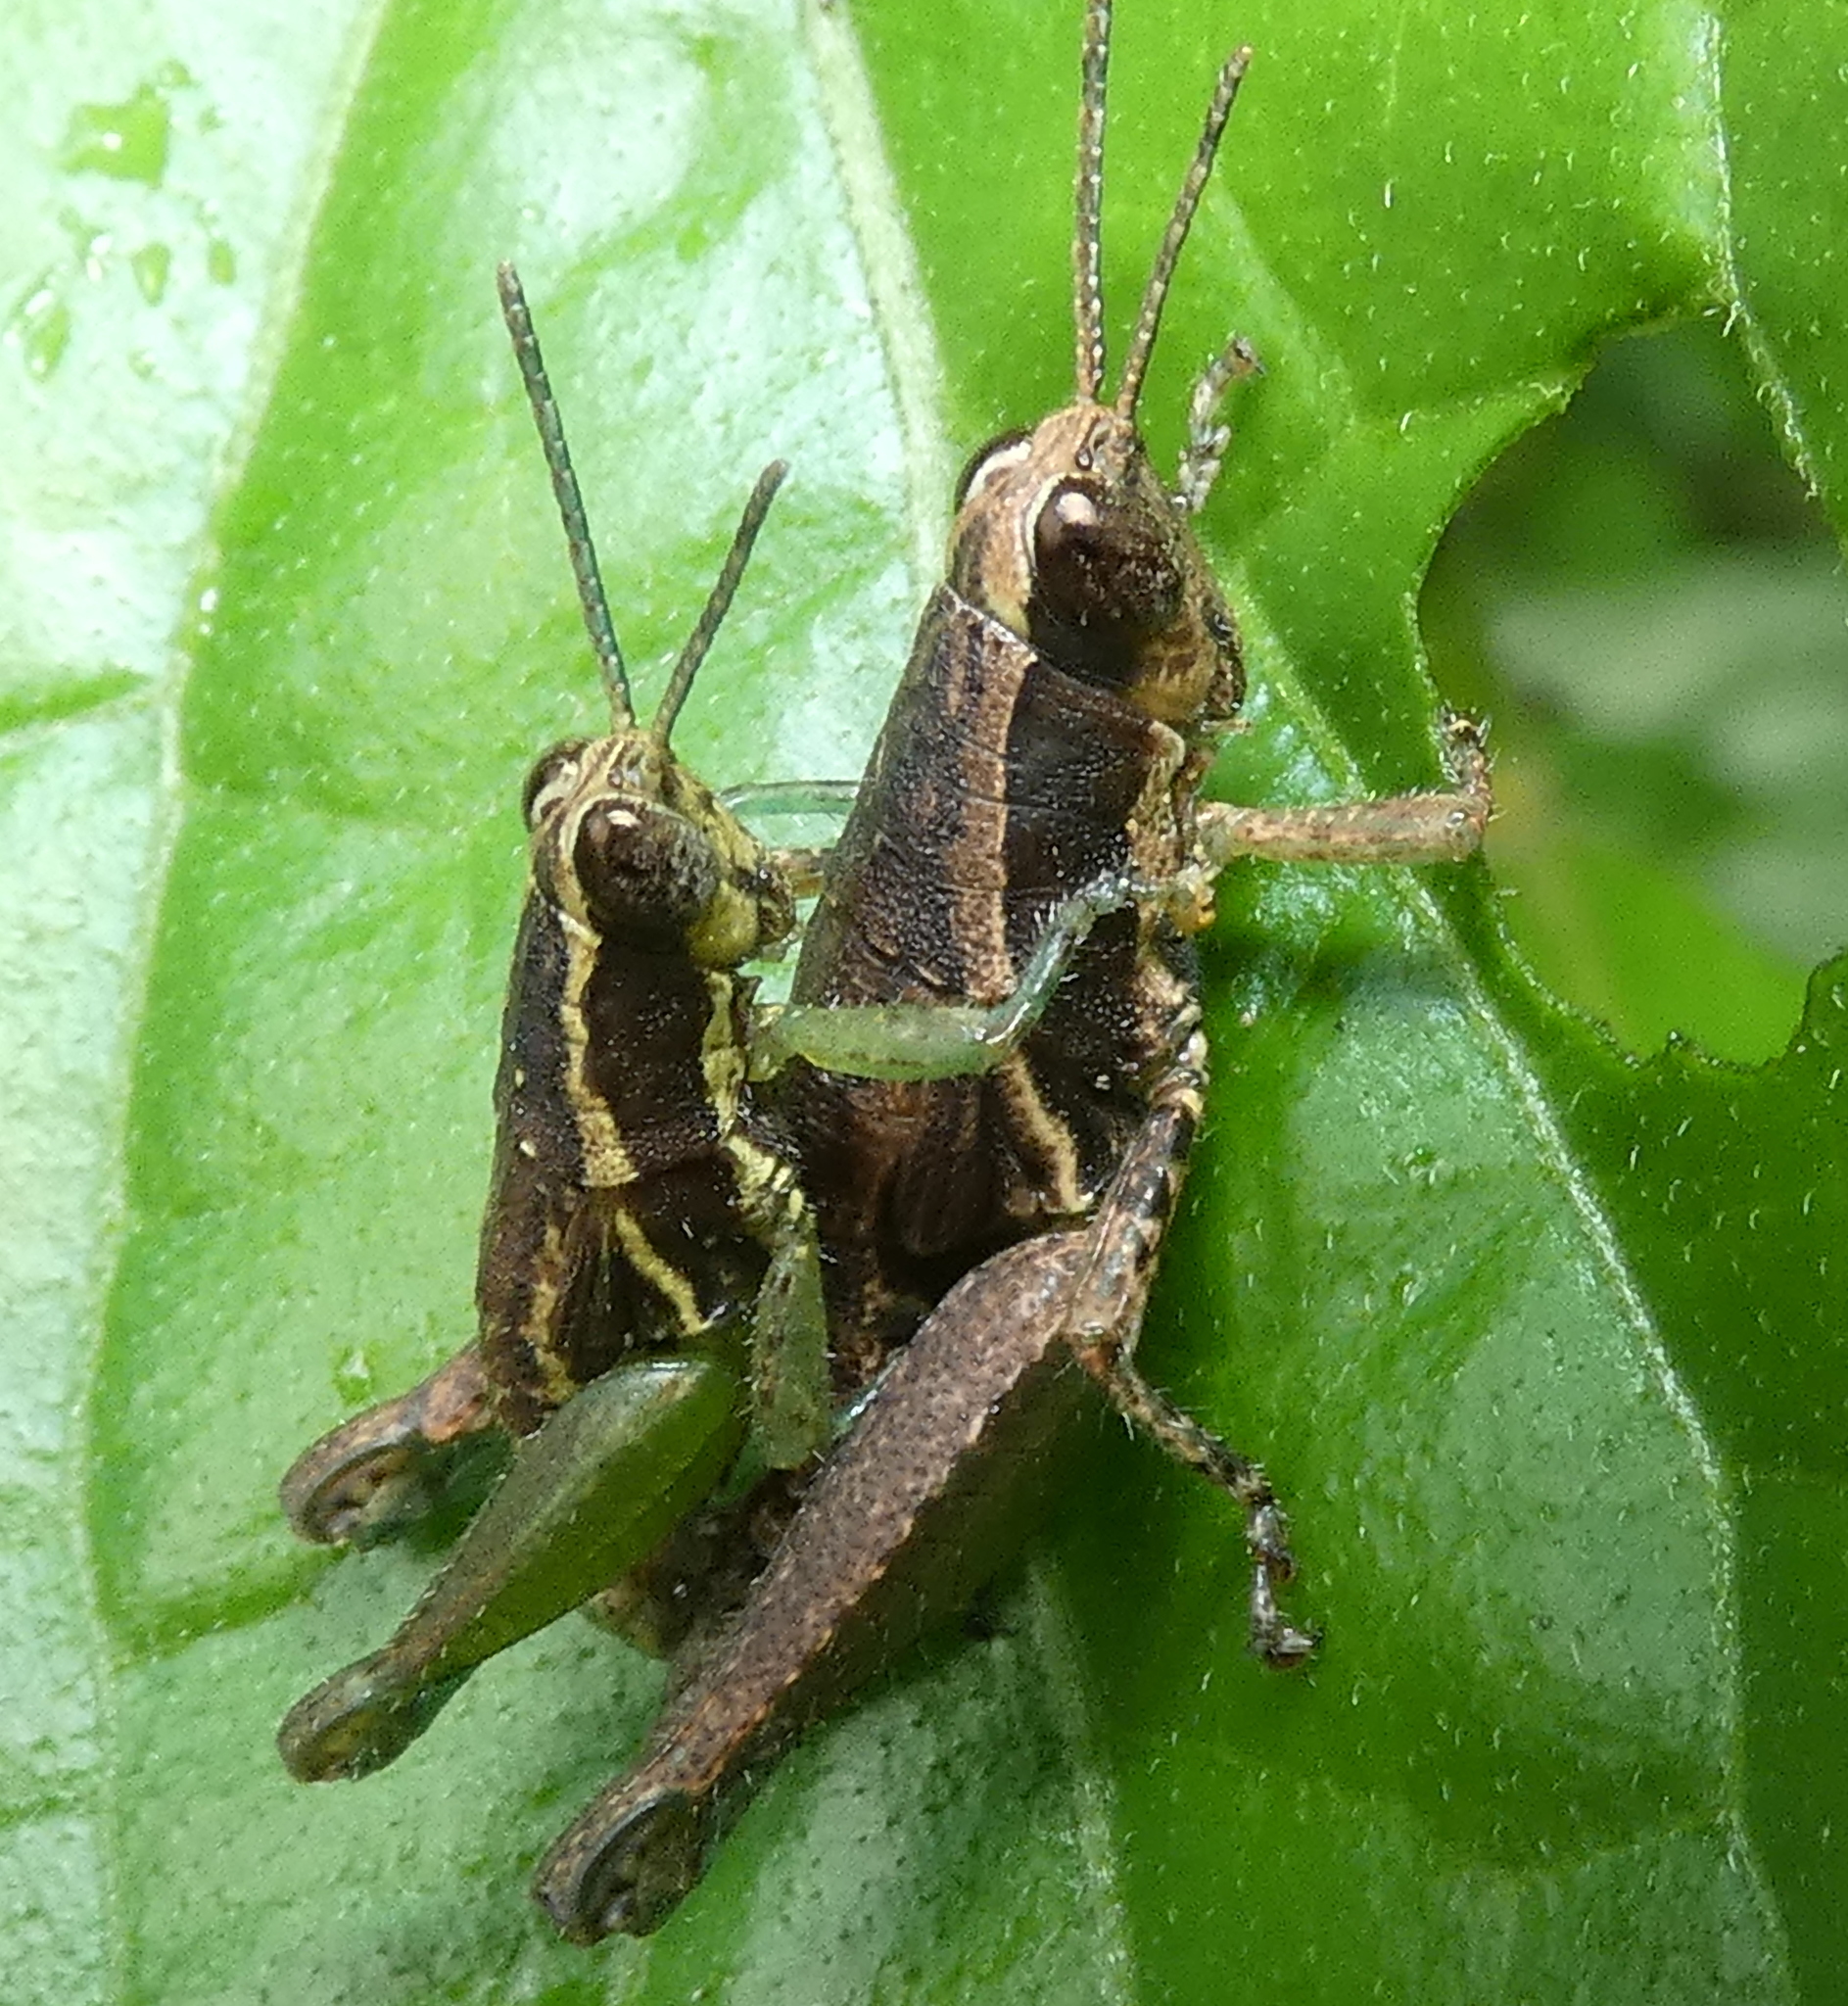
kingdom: Animalia
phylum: Arthropoda
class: Insecta
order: Orthoptera
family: Acrididae
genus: Roppacris
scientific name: Roppacris longicerca
